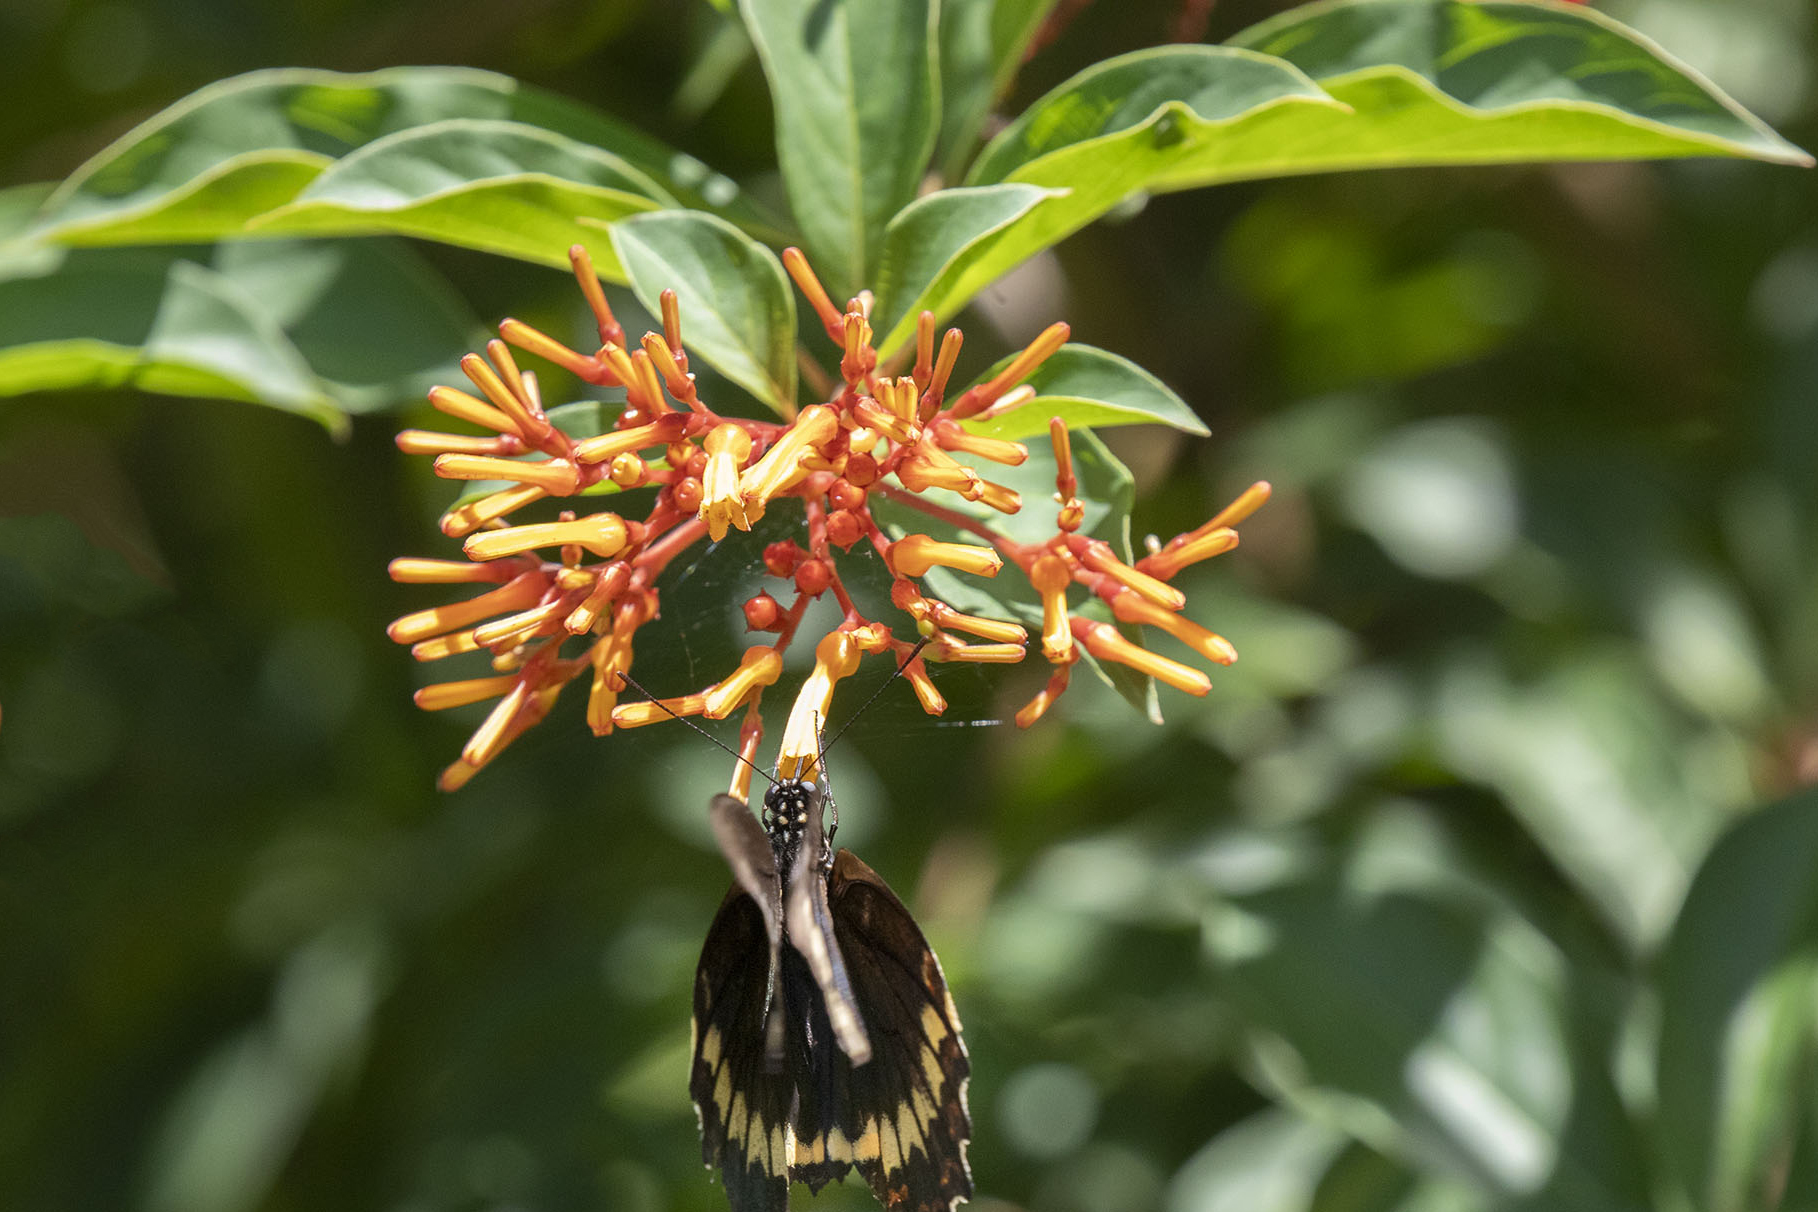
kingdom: Plantae
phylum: Tracheophyta
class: Magnoliopsida
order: Gentianales
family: Rubiaceae
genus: Hamelia
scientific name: Hamelia patens
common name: Redhead
